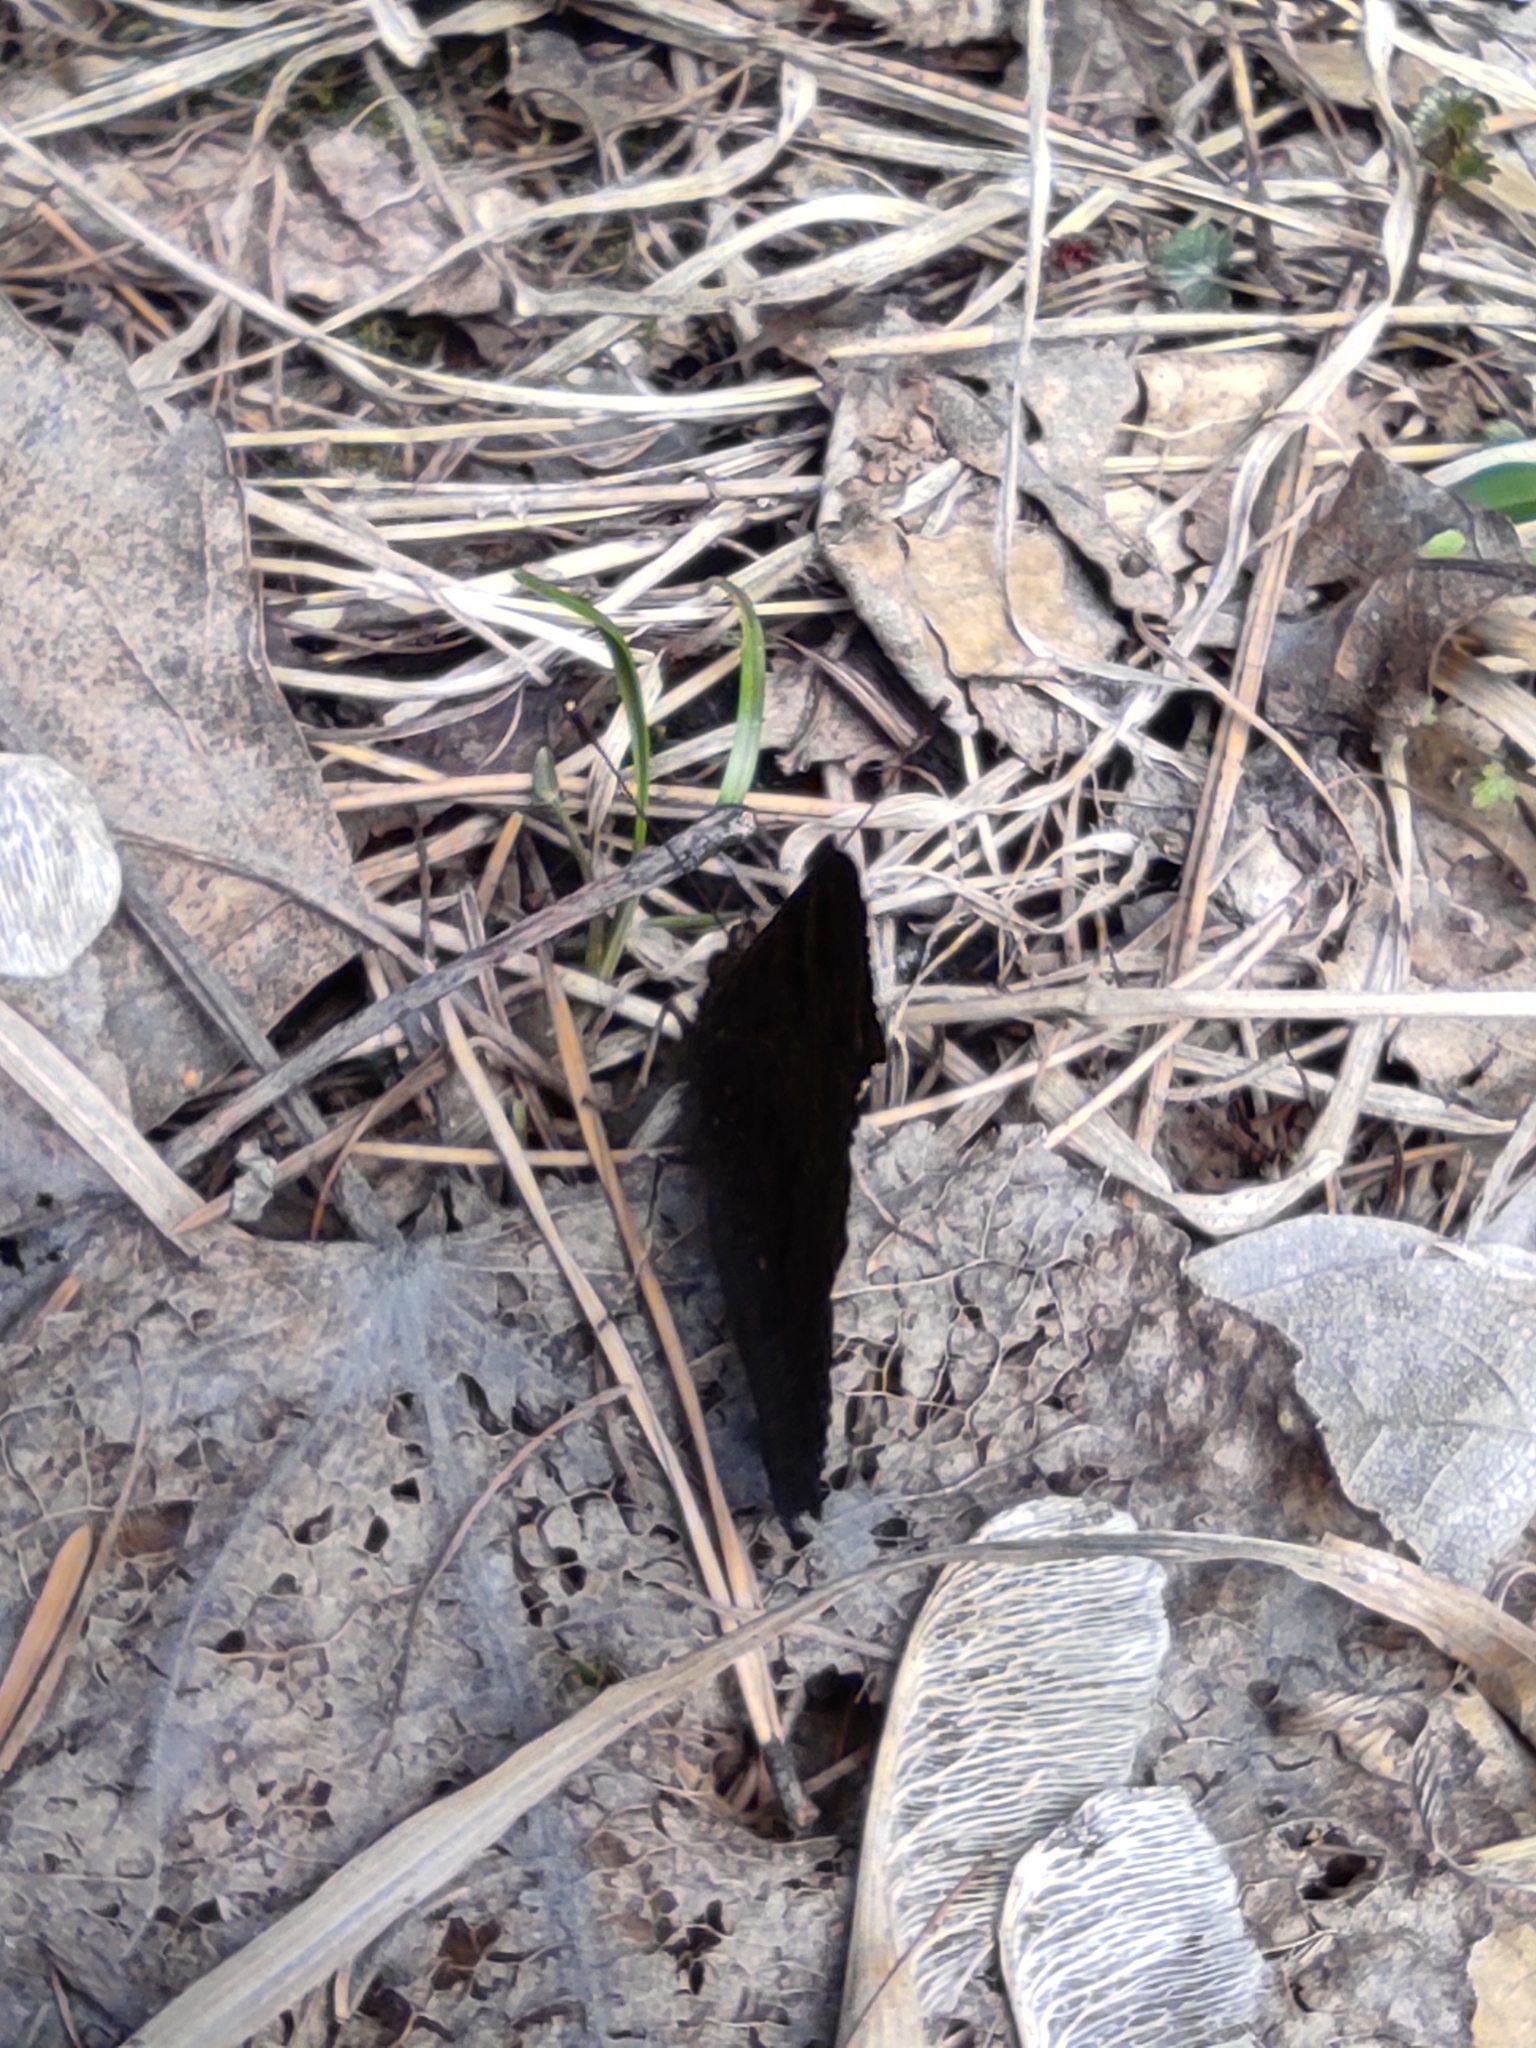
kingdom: Animalia
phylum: Arthropoda
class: Insecta
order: Lepidoptera
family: Nymphalidae
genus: Aglais
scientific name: Aglais io
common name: Peacock
